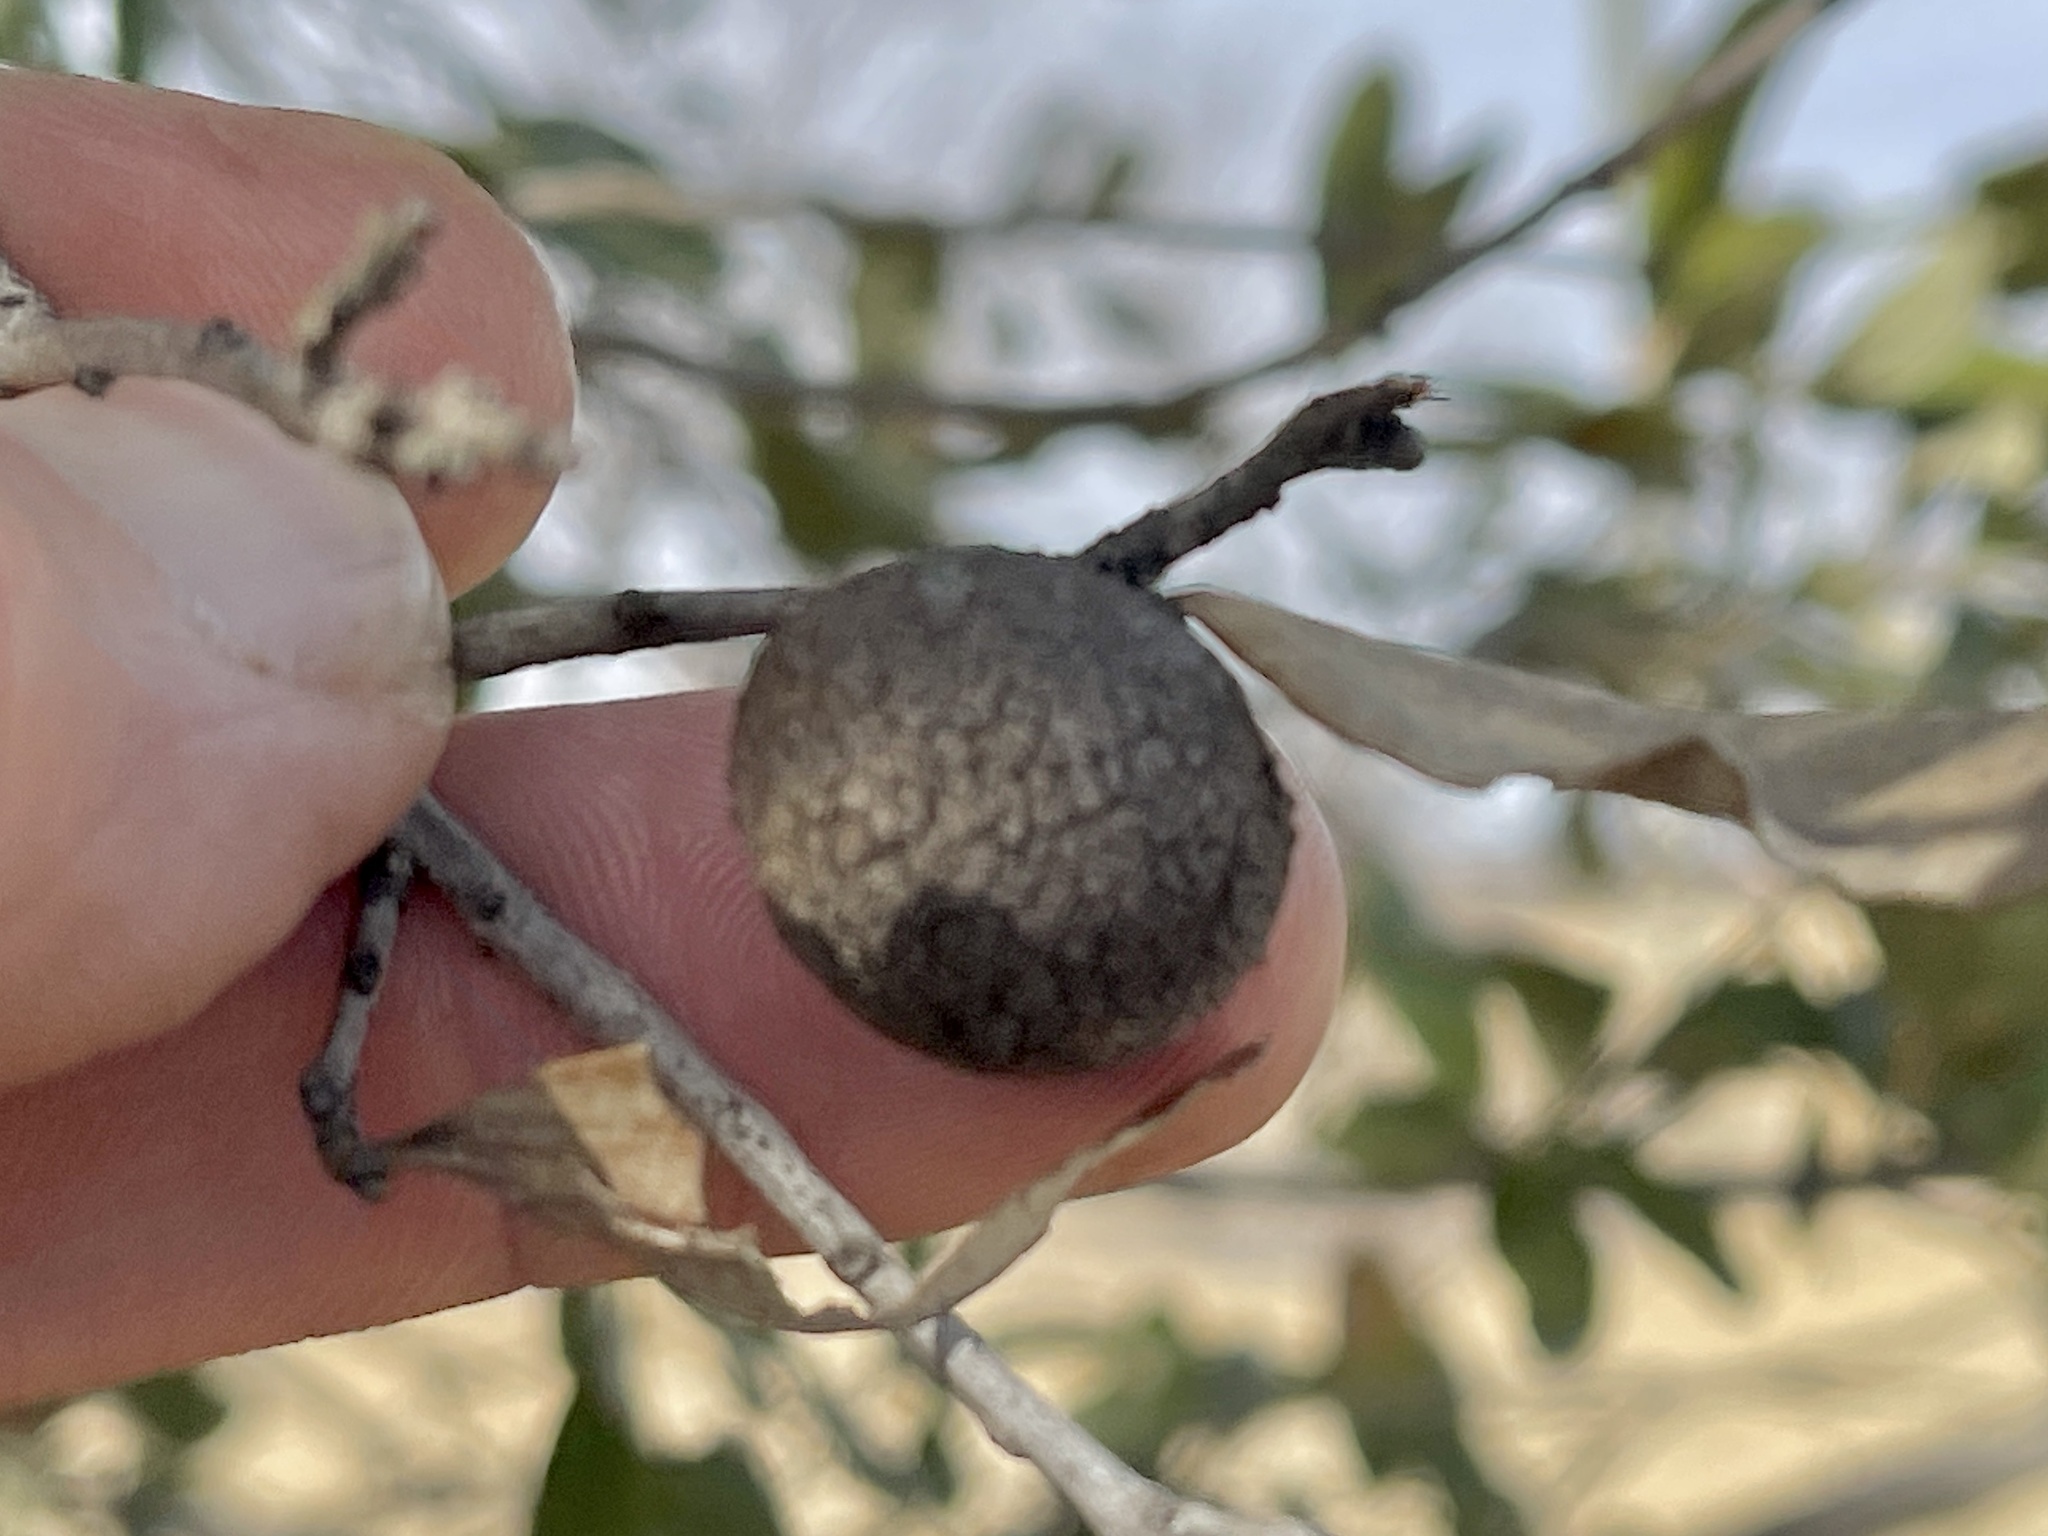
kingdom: Animalia
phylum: Arthropoda
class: Insecta
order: Hymenoptera
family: Cynipidae
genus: Disholcaspis
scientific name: Disholcaspis
